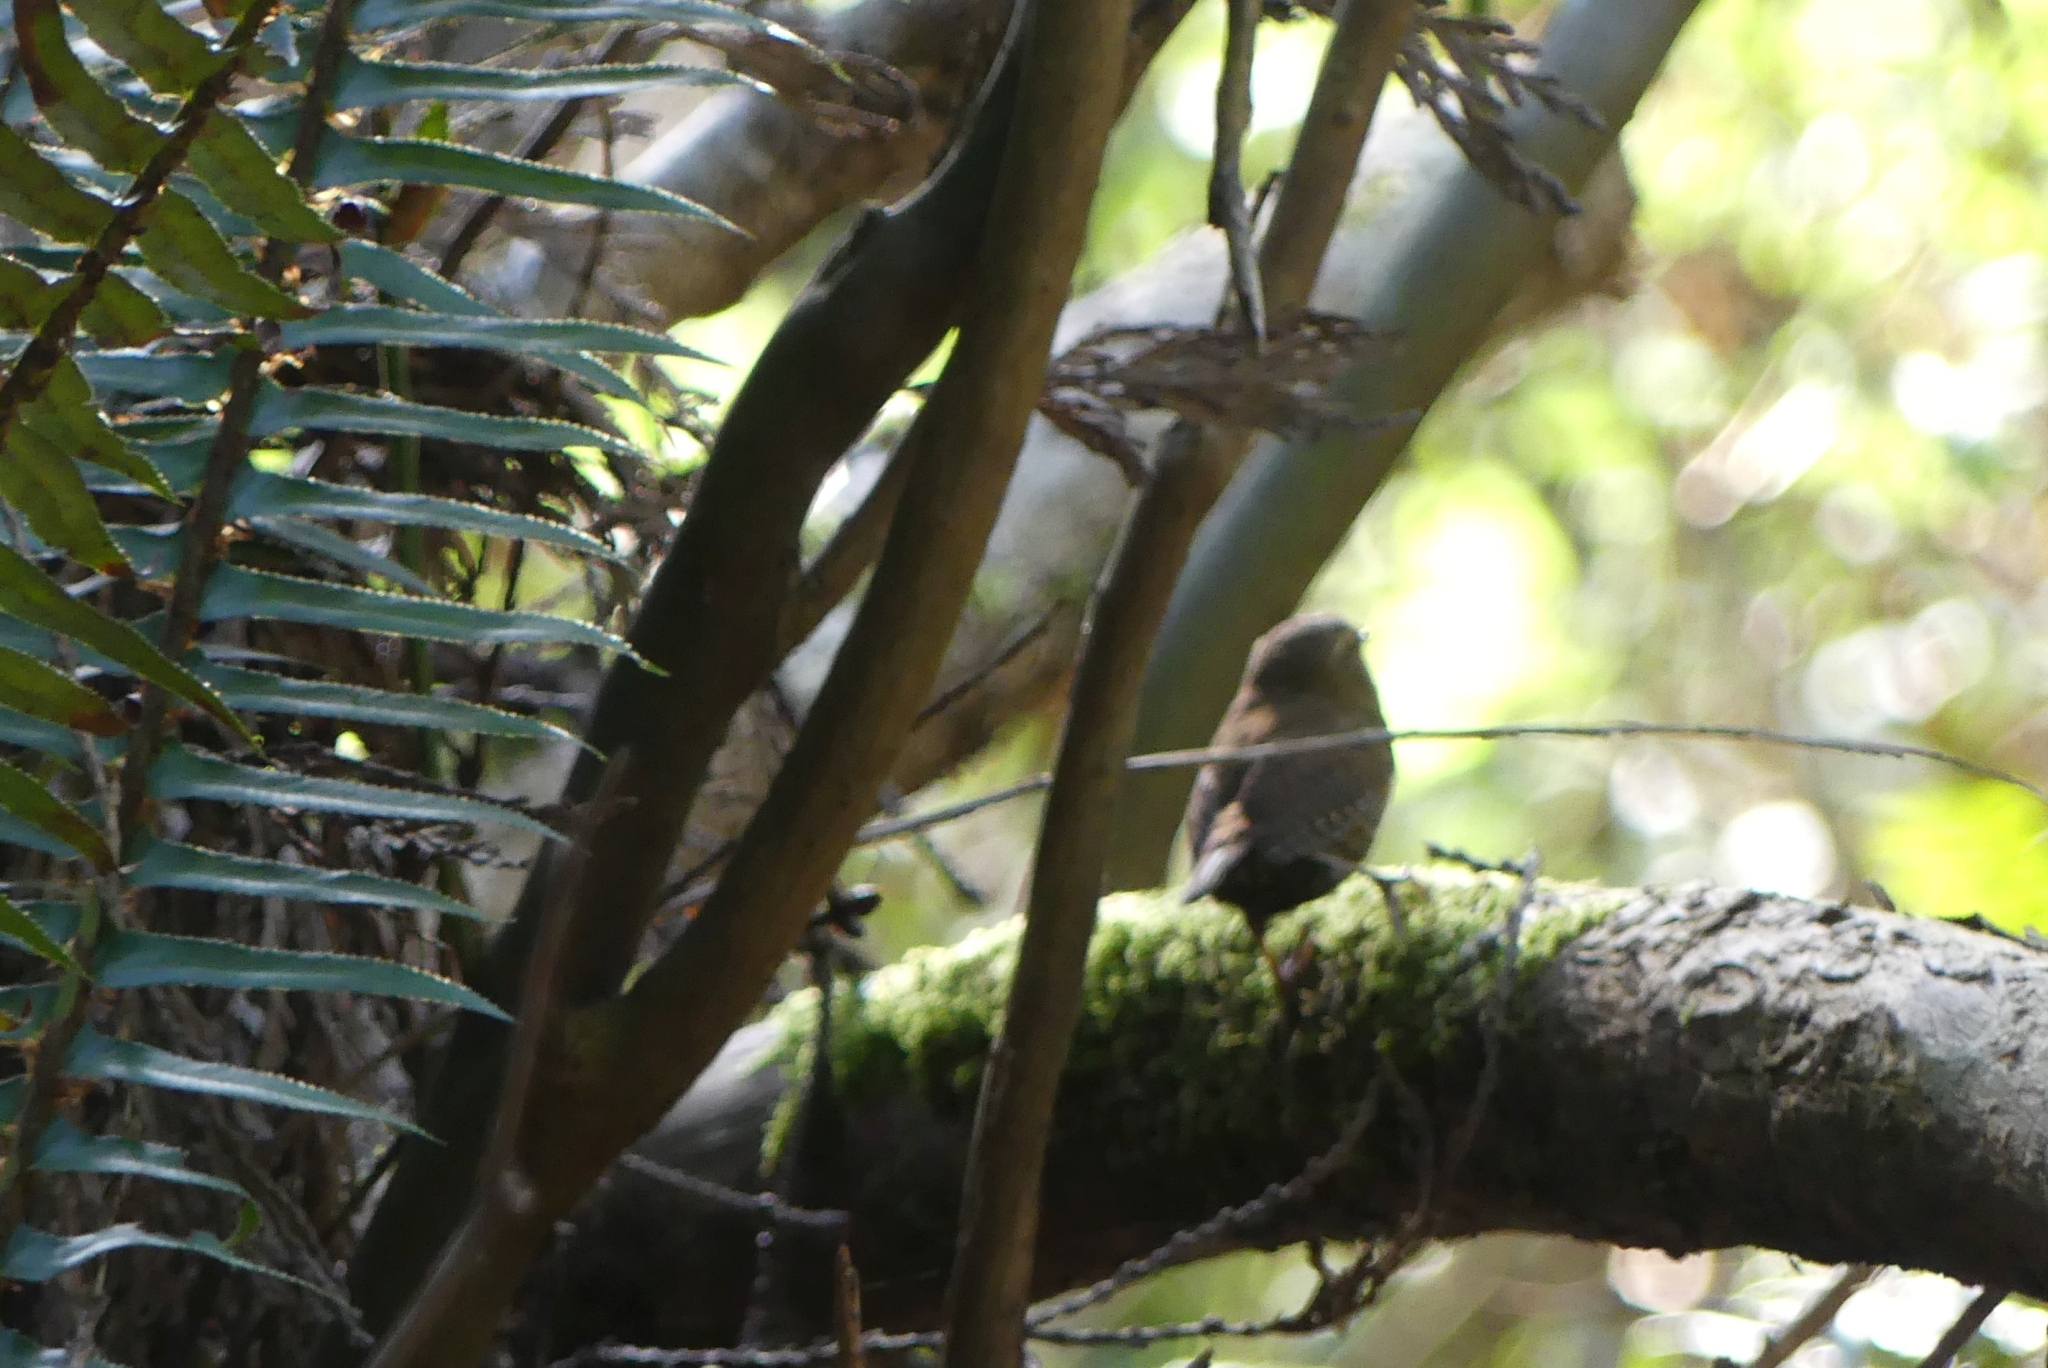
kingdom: Animalia
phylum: Chordata
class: Aves
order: Passeriformes
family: Troglodytidae
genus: Troglodytes
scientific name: Troglodytes pacificus
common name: Pacific wren
